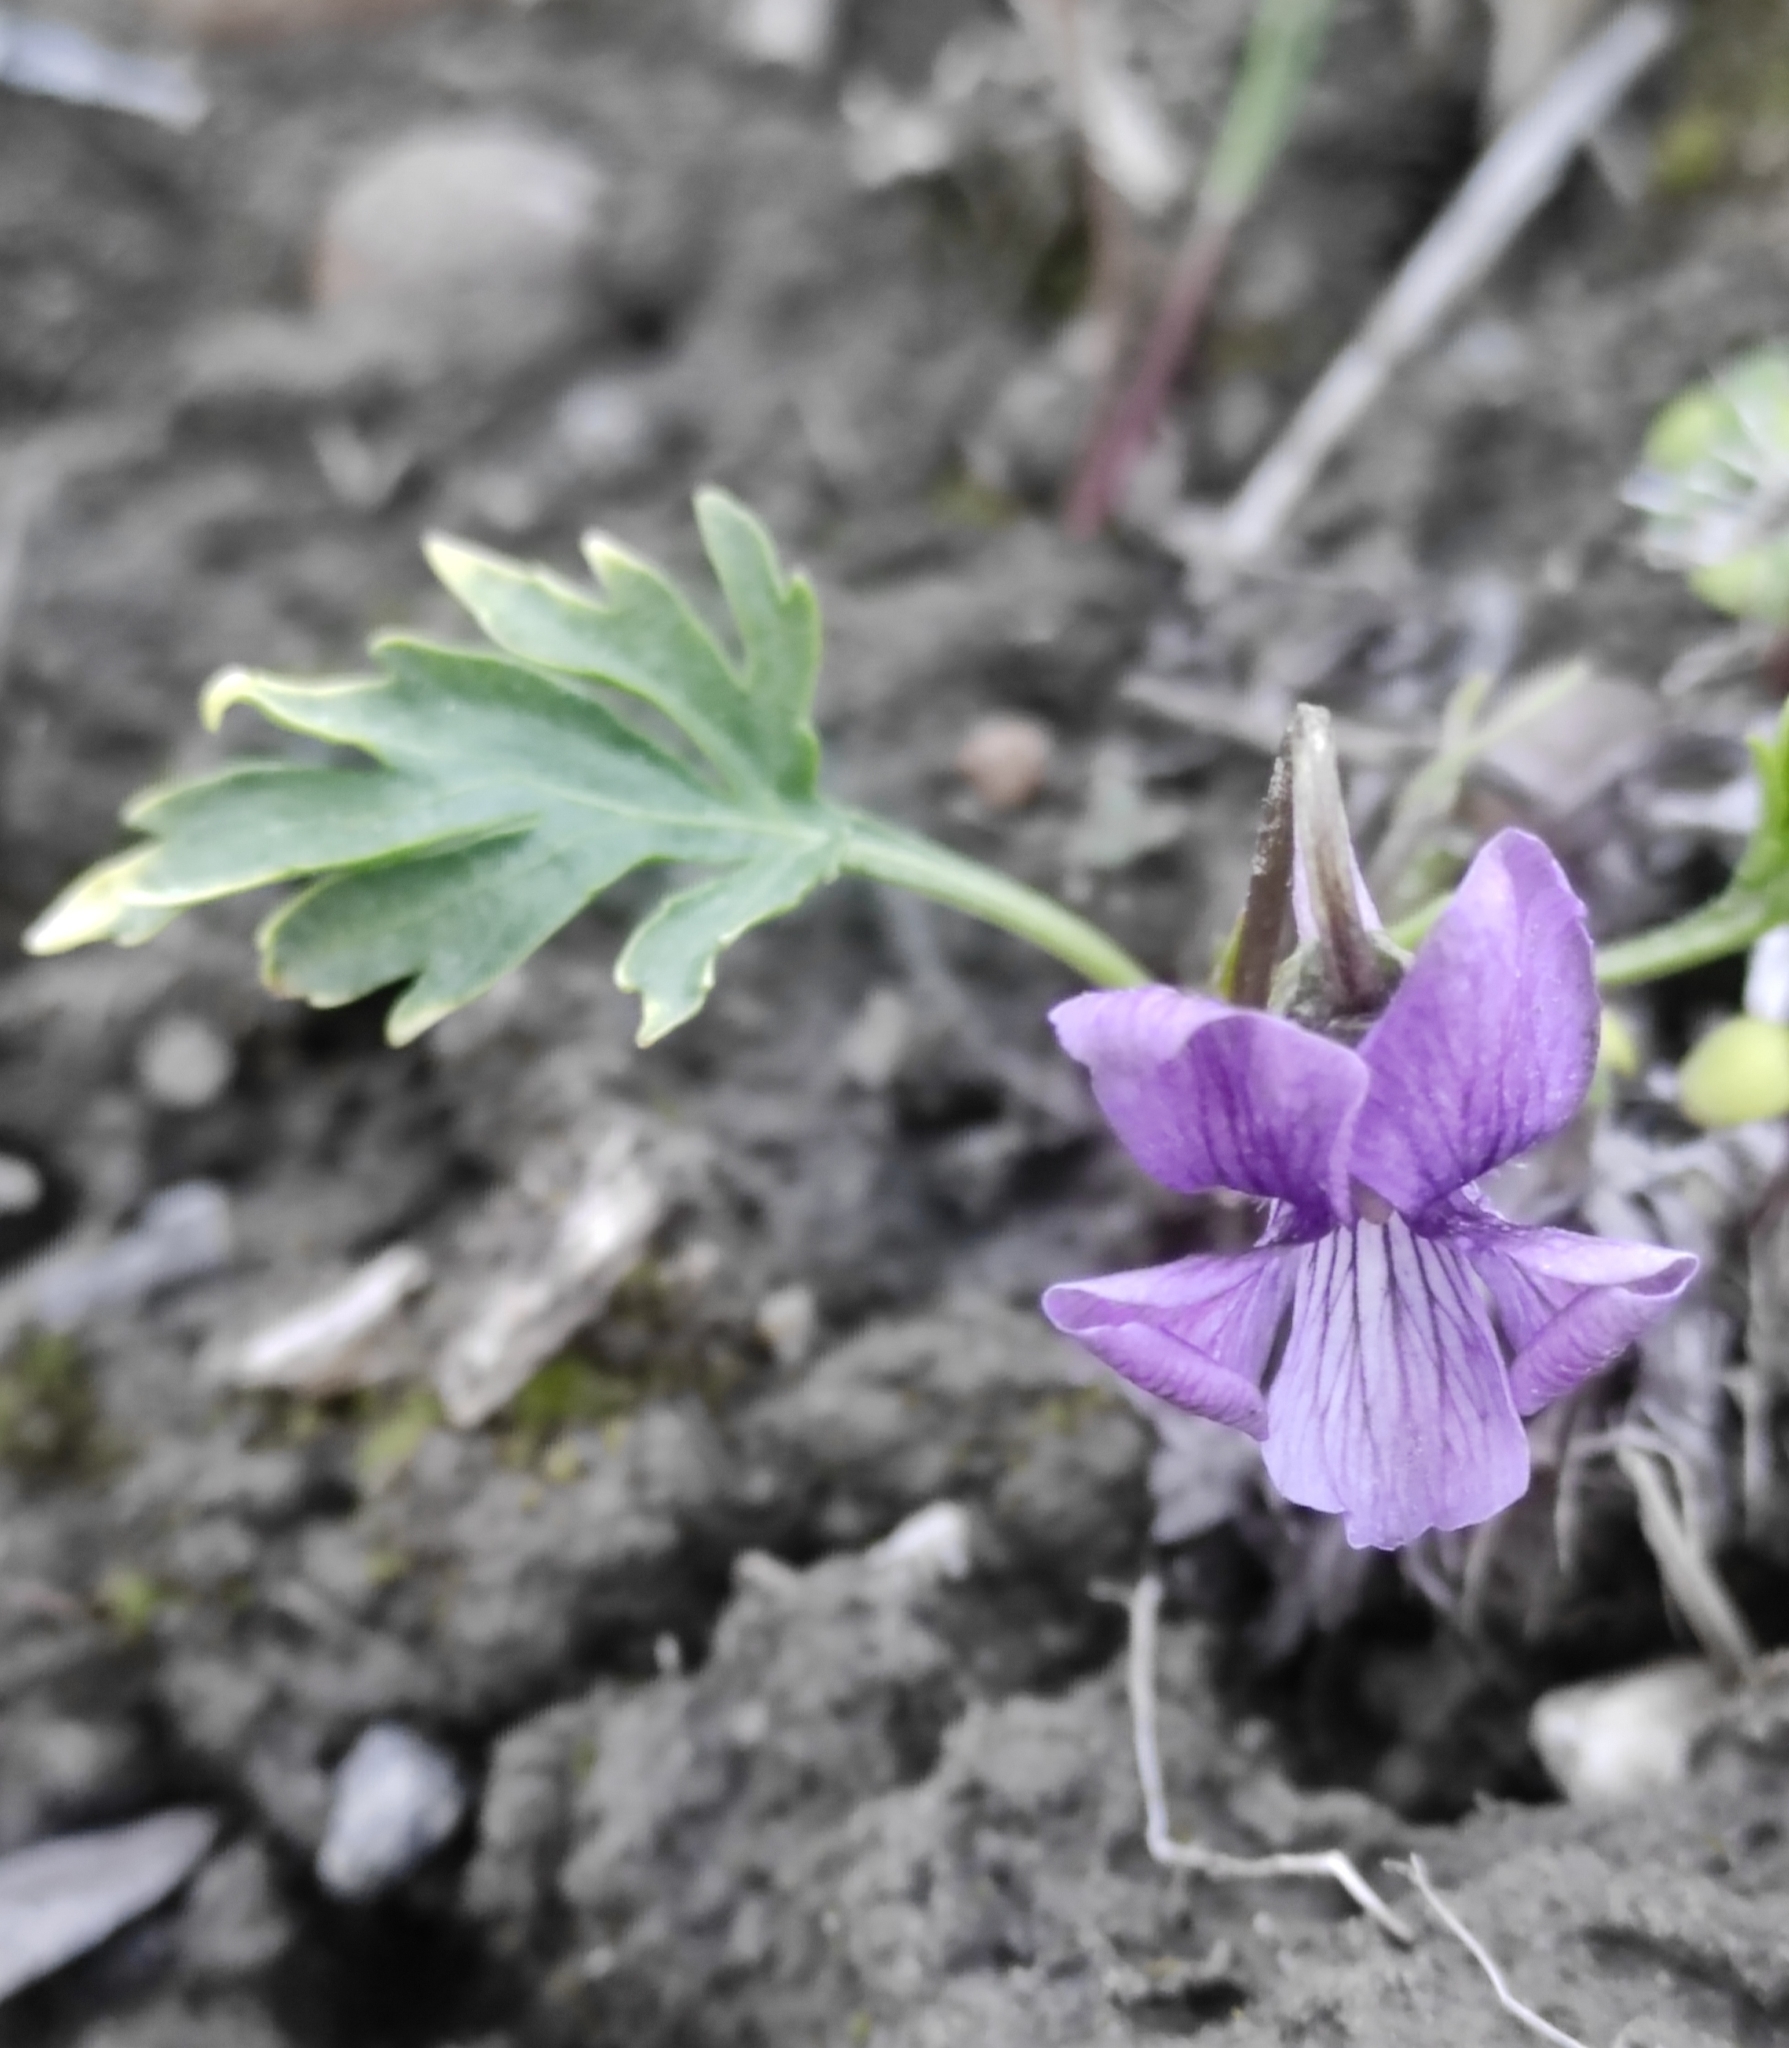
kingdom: Plantae
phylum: Tracheophyta
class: Magnoliopsida
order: Malpighiales
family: Violaceae
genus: Viola
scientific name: Viola incissecta
